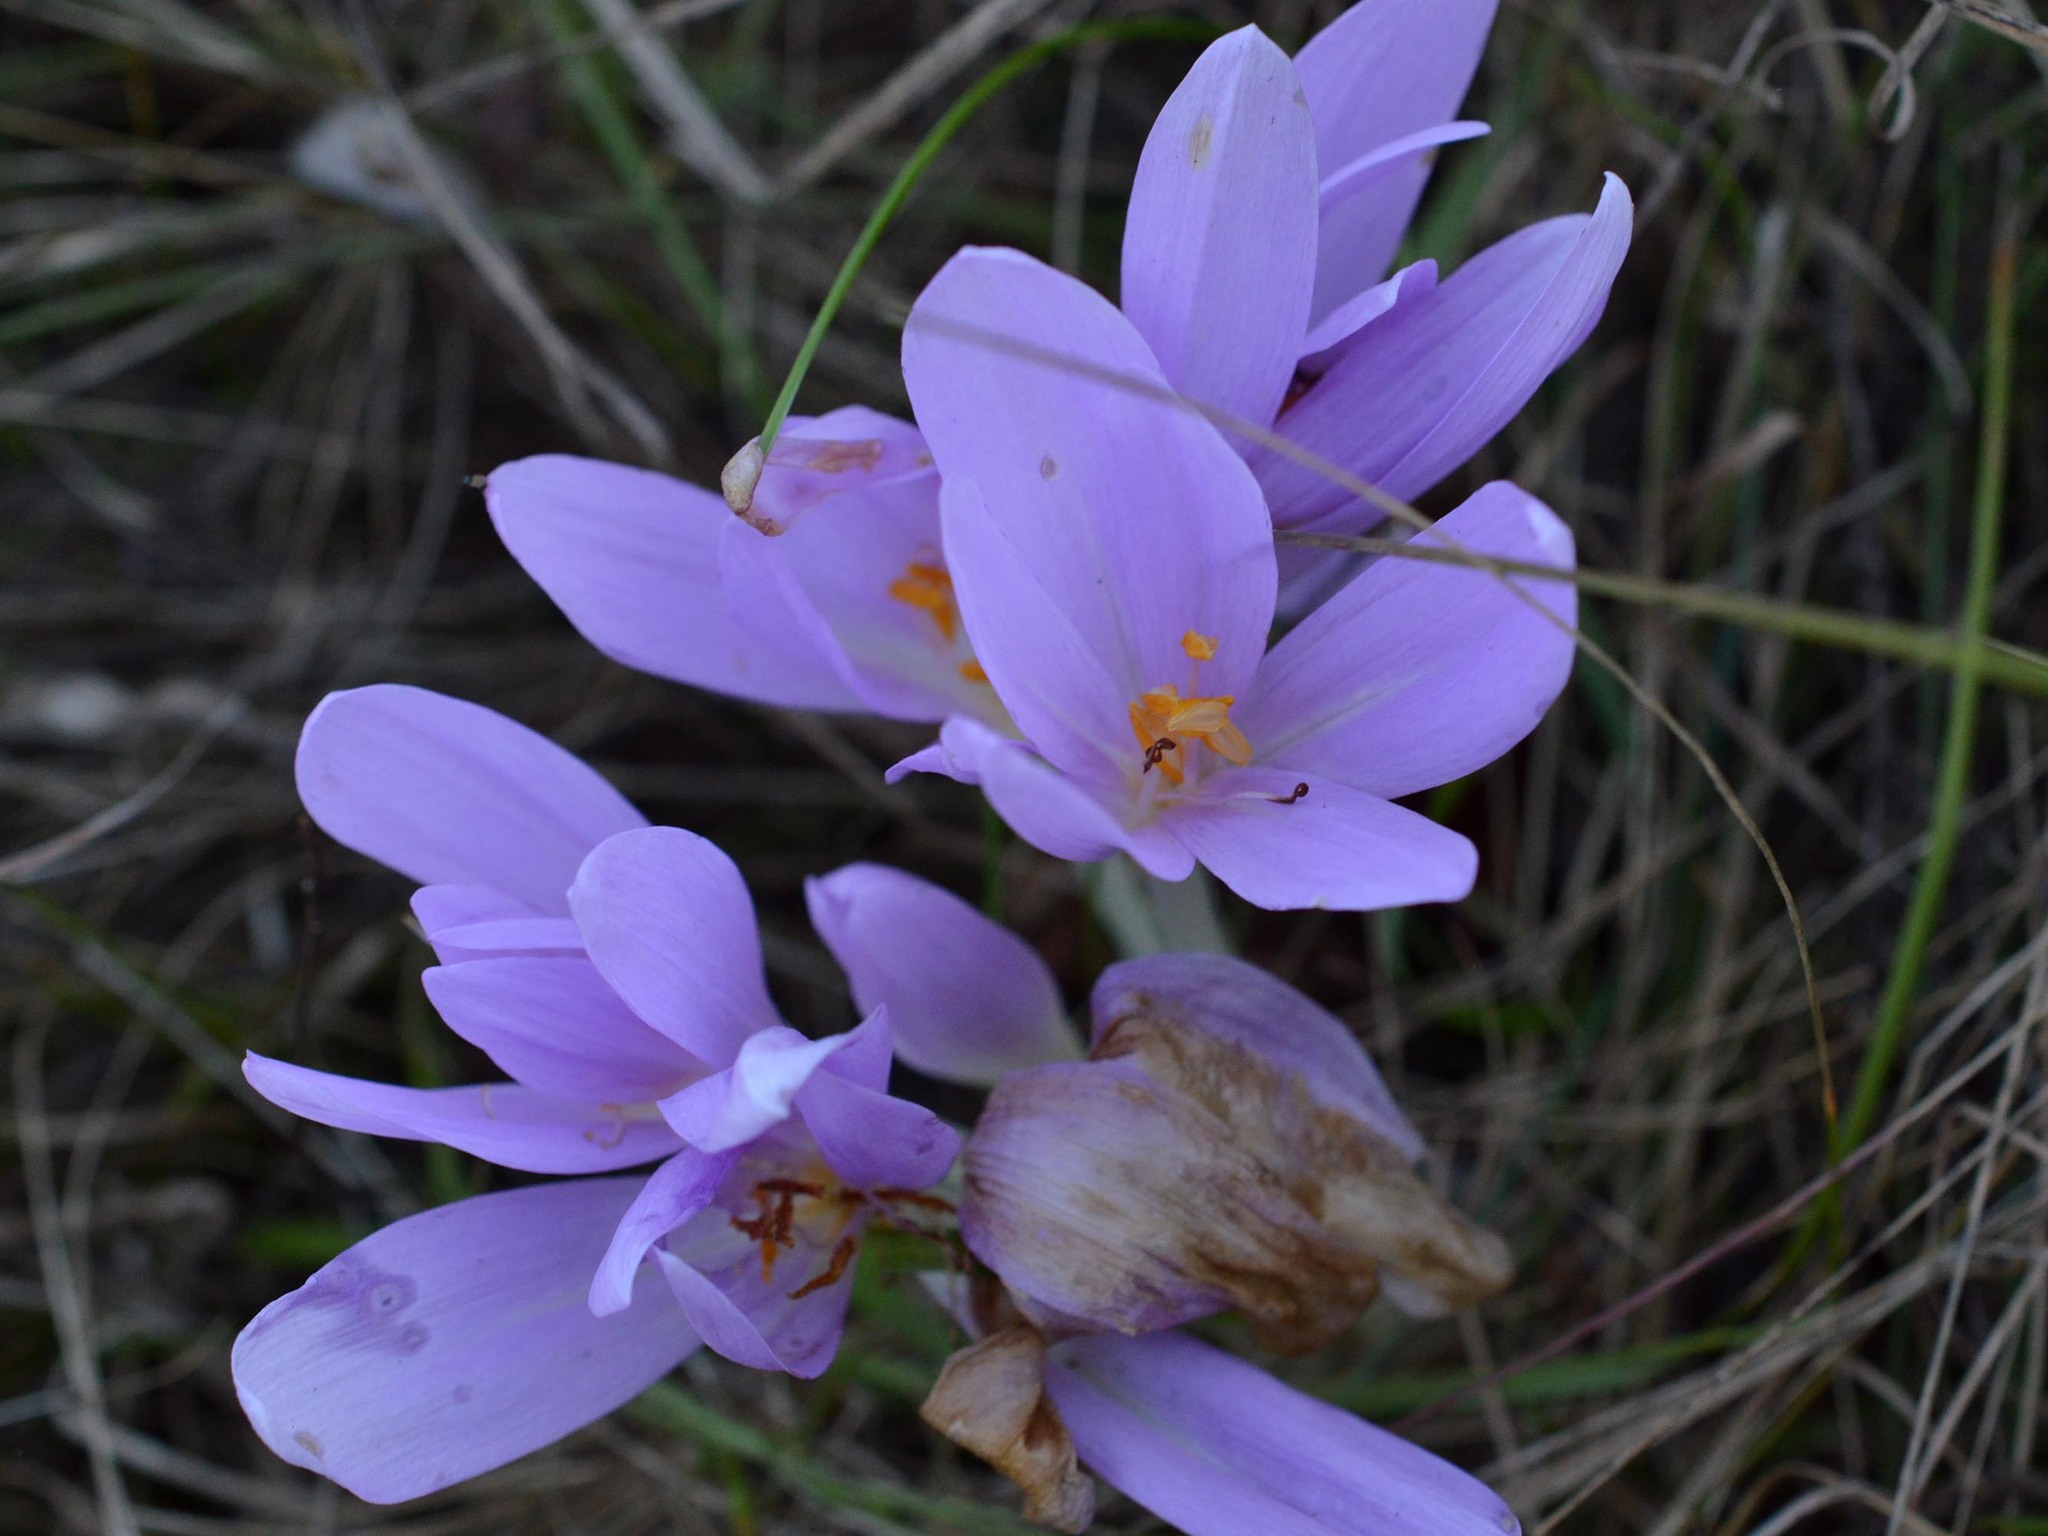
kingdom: Plantae
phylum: Tracheophyta
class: Liliopsida
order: Liliales
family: Colchicaceae
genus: Colchicum
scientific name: Colchicum autumnale
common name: Autumn crocus
